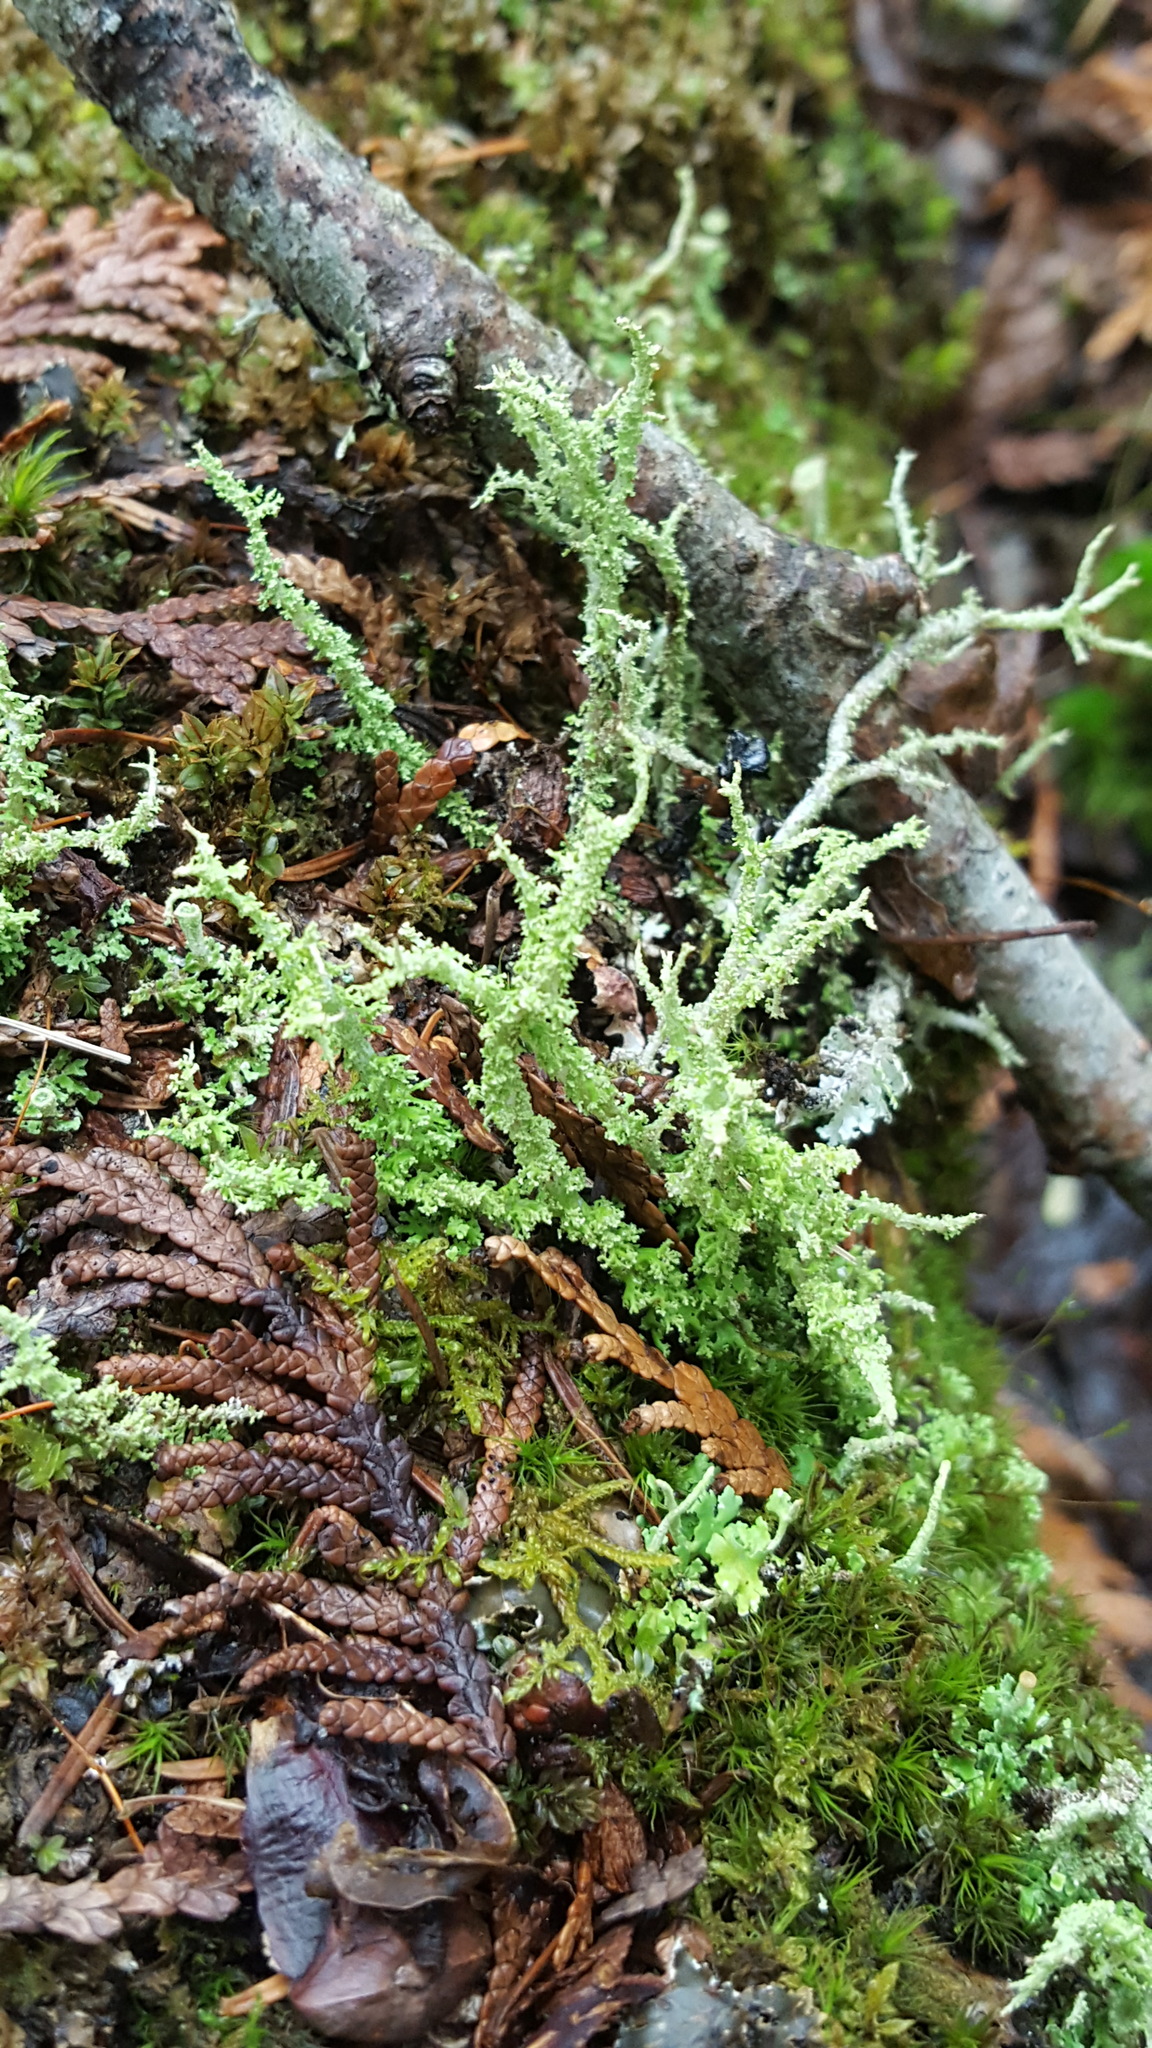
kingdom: Fungi
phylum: Ascomycota
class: Lecanoromycetes
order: Lecanorales
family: Cladoniaceae
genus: Cladonia
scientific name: Cladonia furcata
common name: Many-forked cladonia
